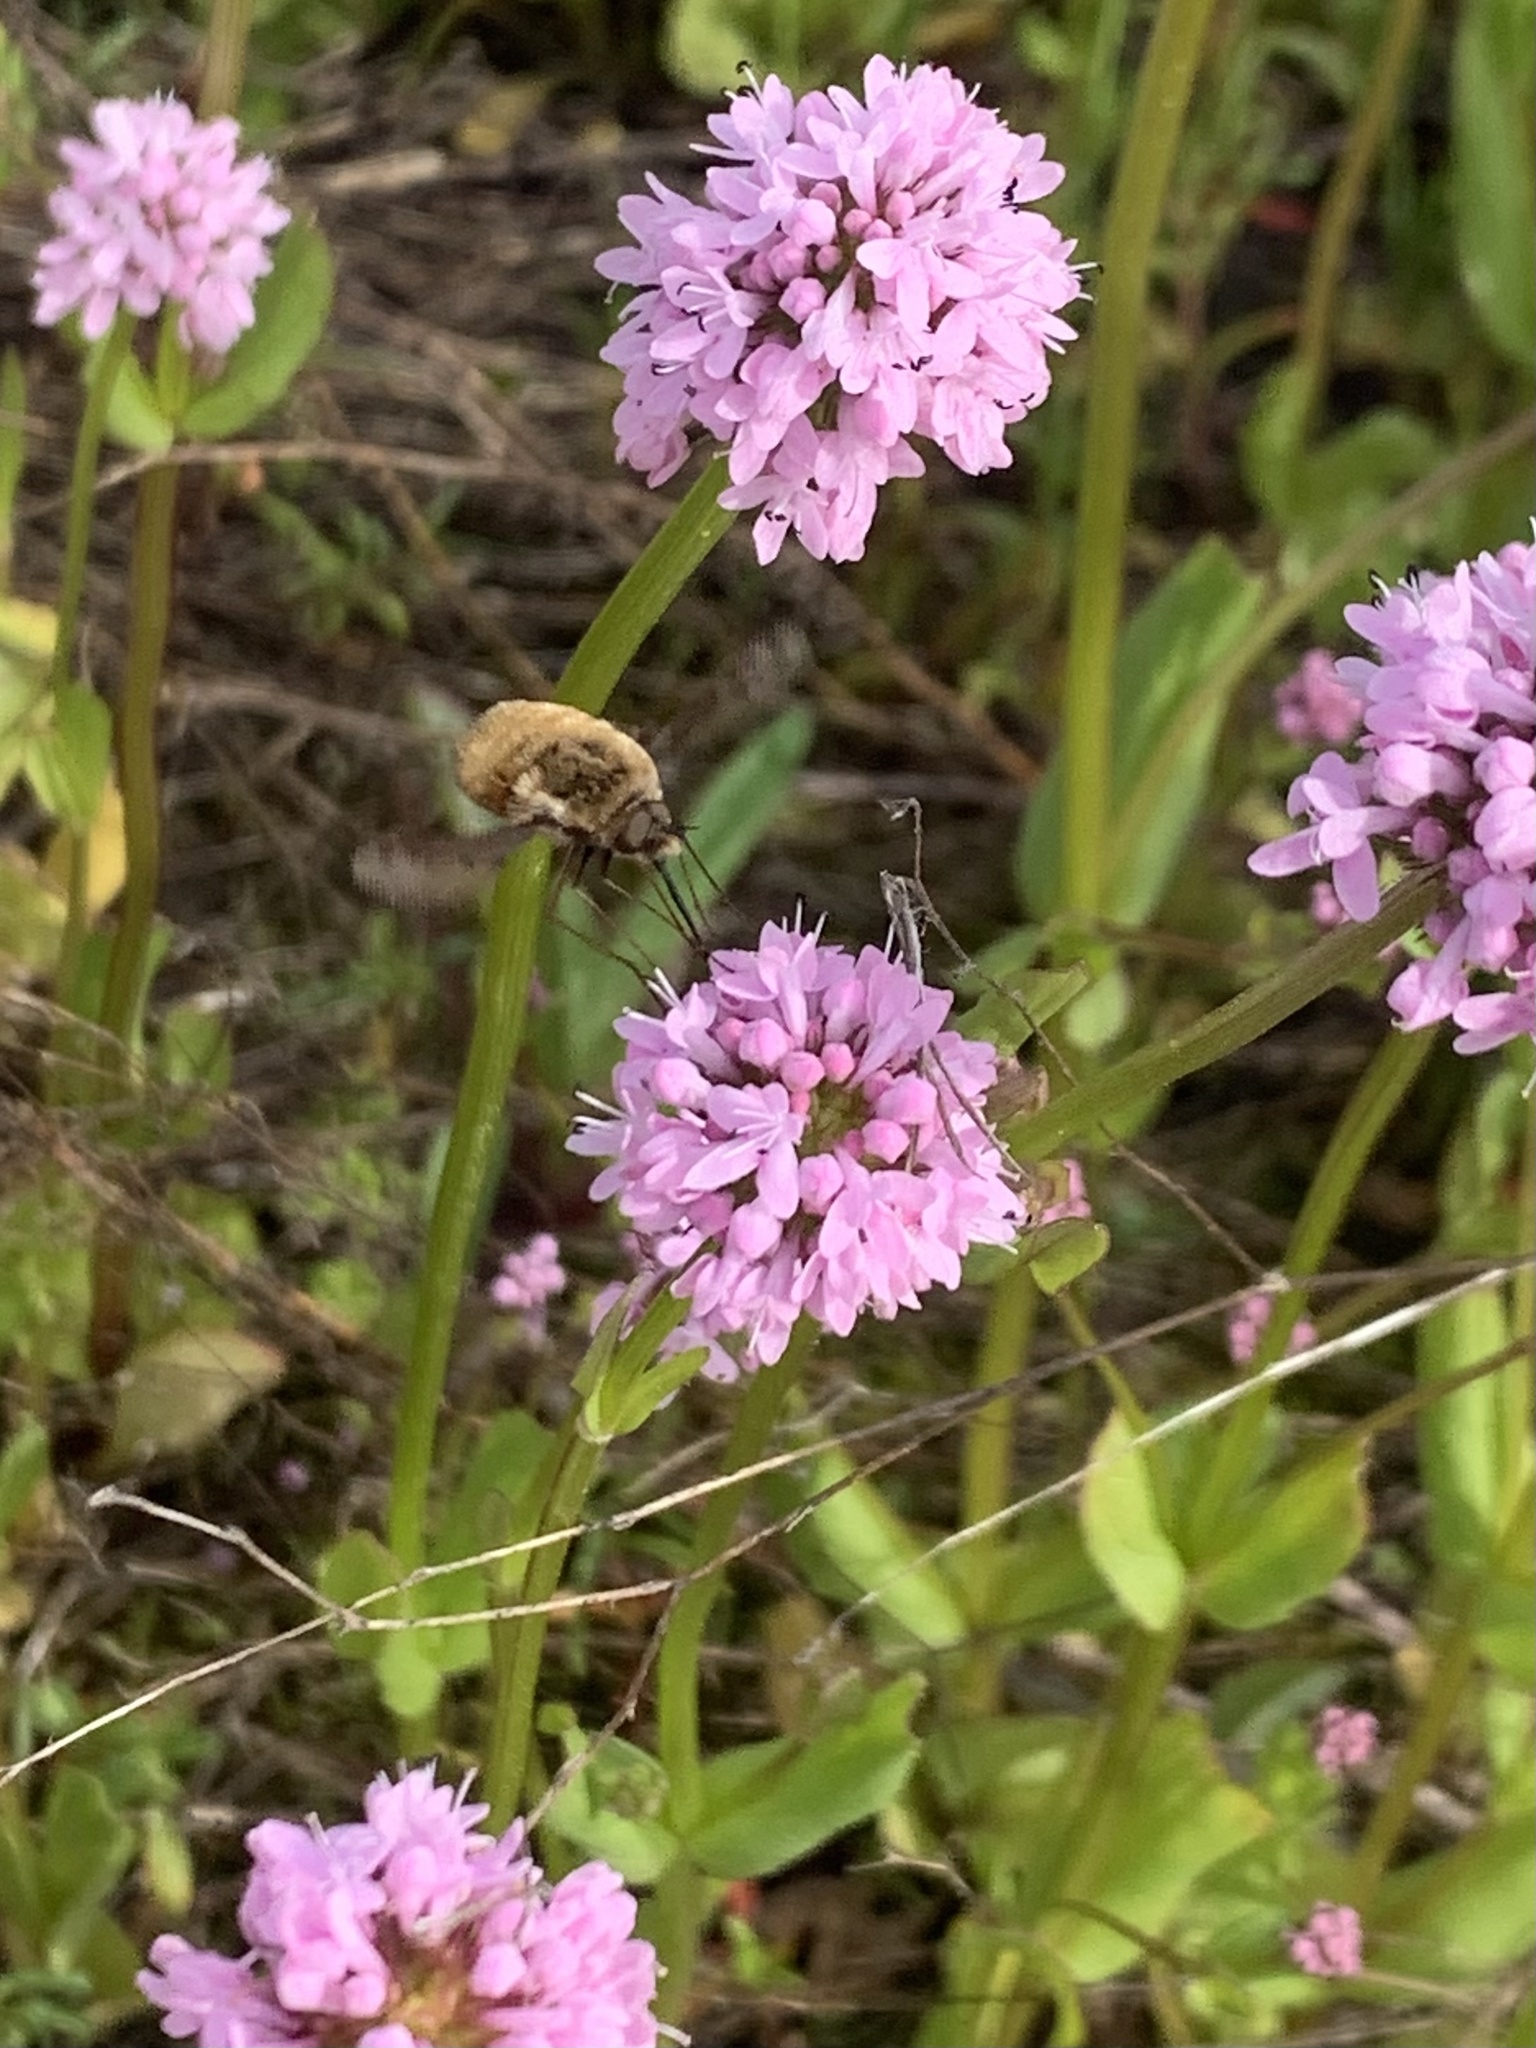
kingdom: Animalia
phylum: Arthropoda
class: Insecta
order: Diptera
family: Bombyliidae
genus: Bombylius
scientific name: Bombylius major
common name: Bee fly
